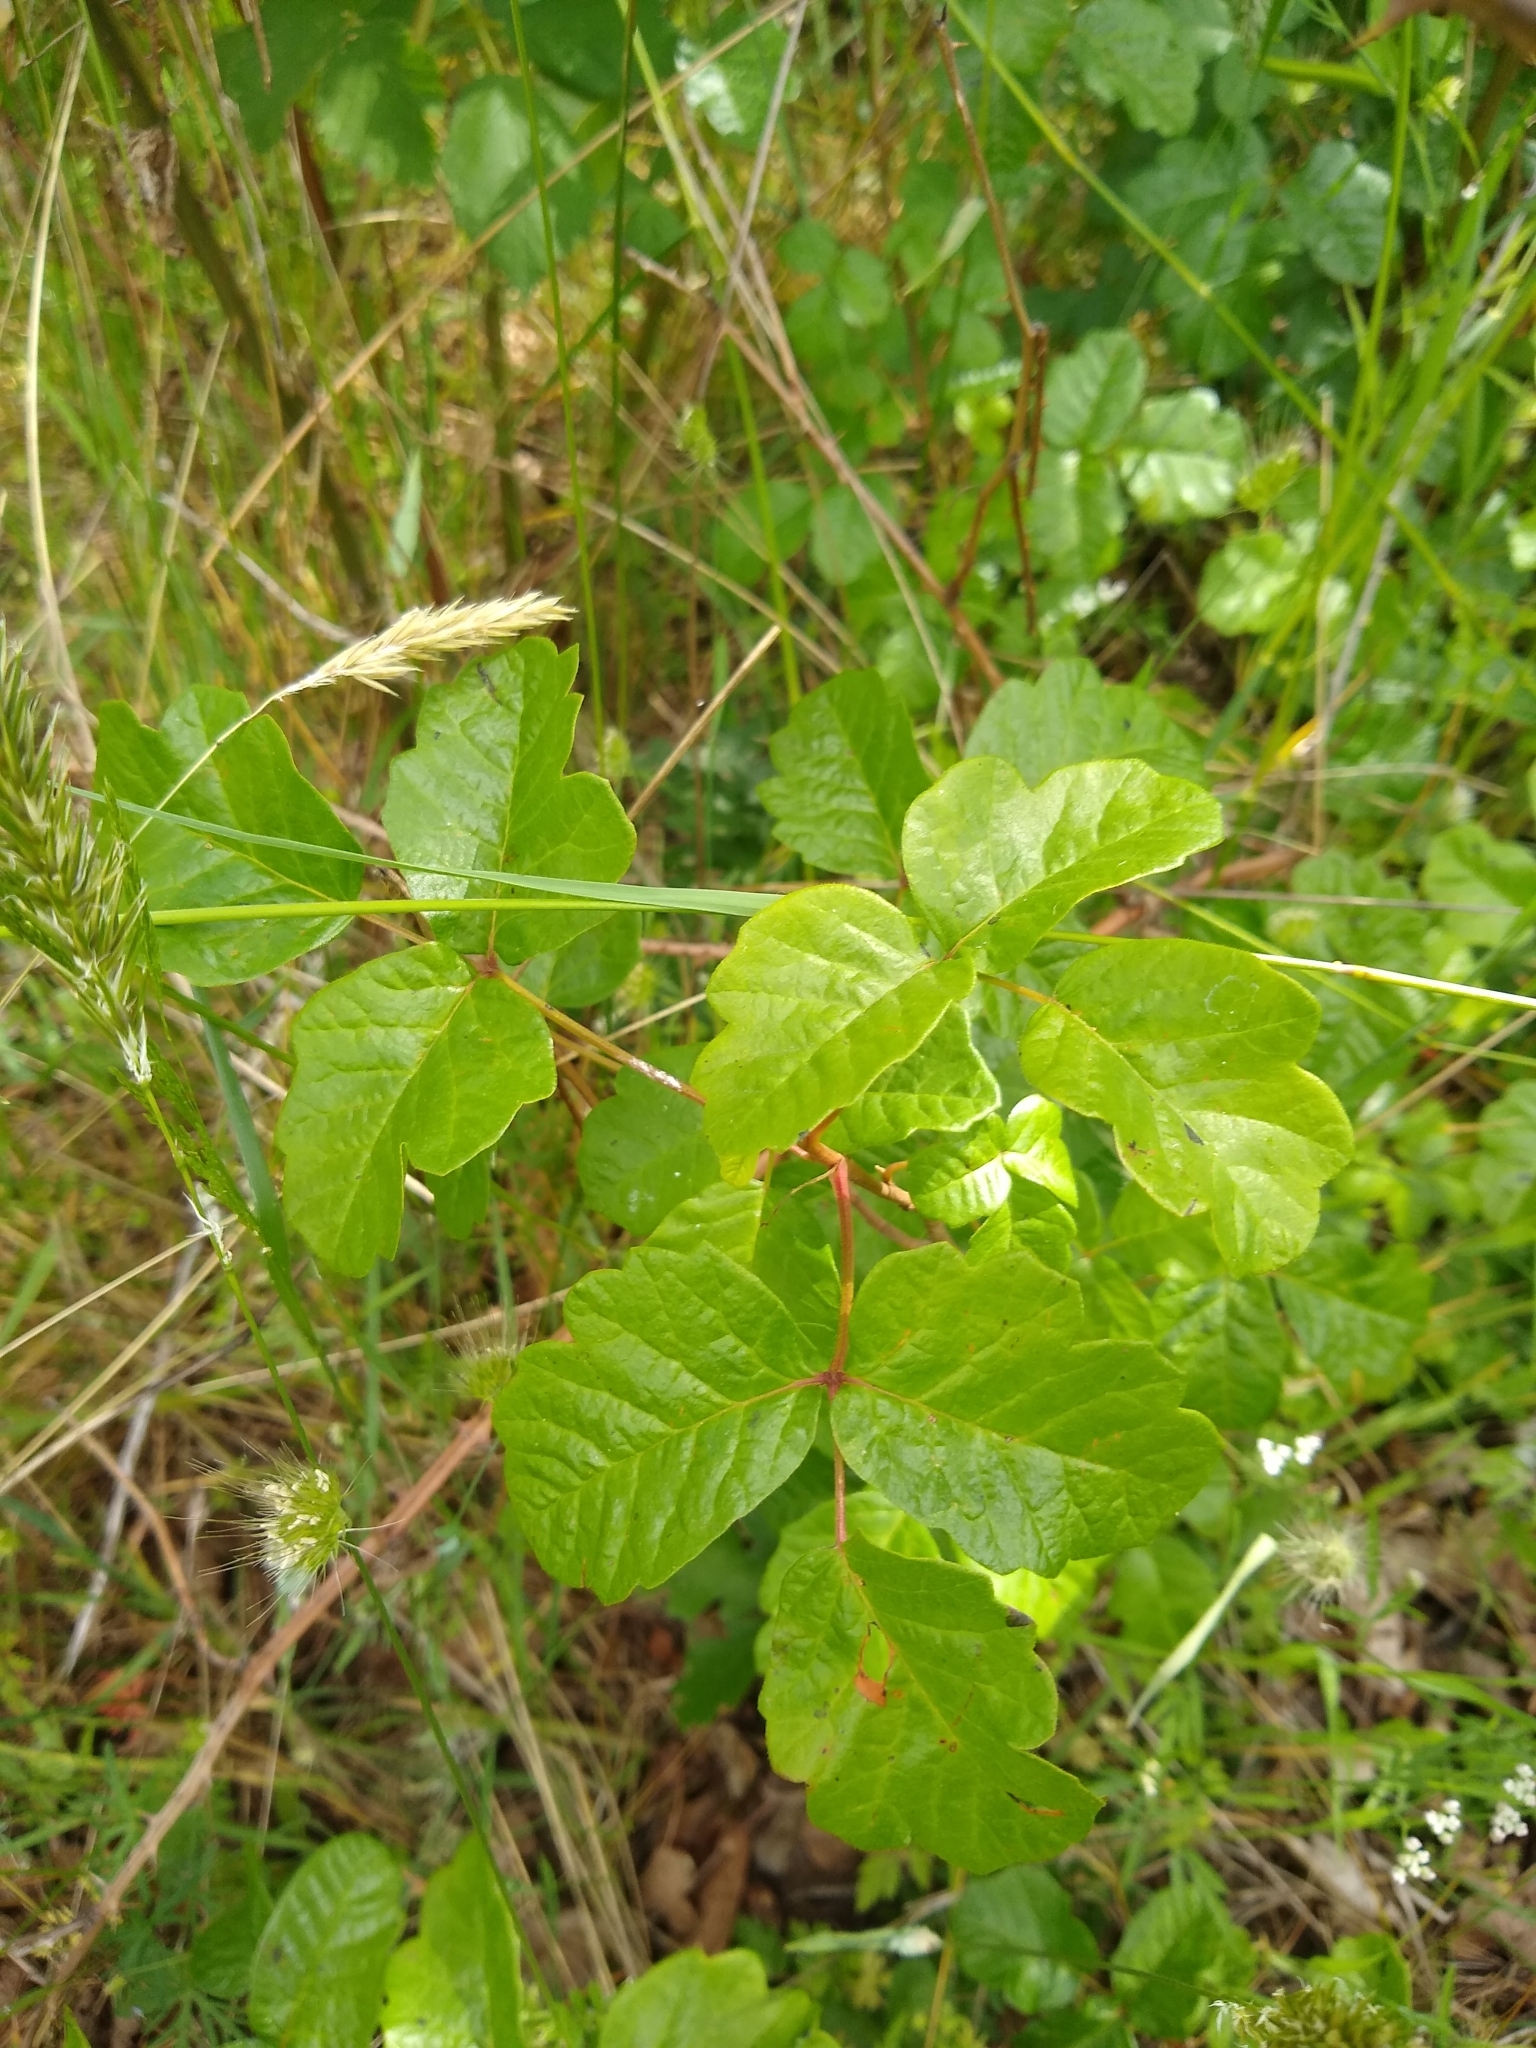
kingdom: Plantae
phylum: Tracheophyta
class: Magnoliopsida
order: Sapindales
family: Anacardiaceae
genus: Toxicodendron
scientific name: Toxicodendron diversilobum
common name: Pacific poison-oak
